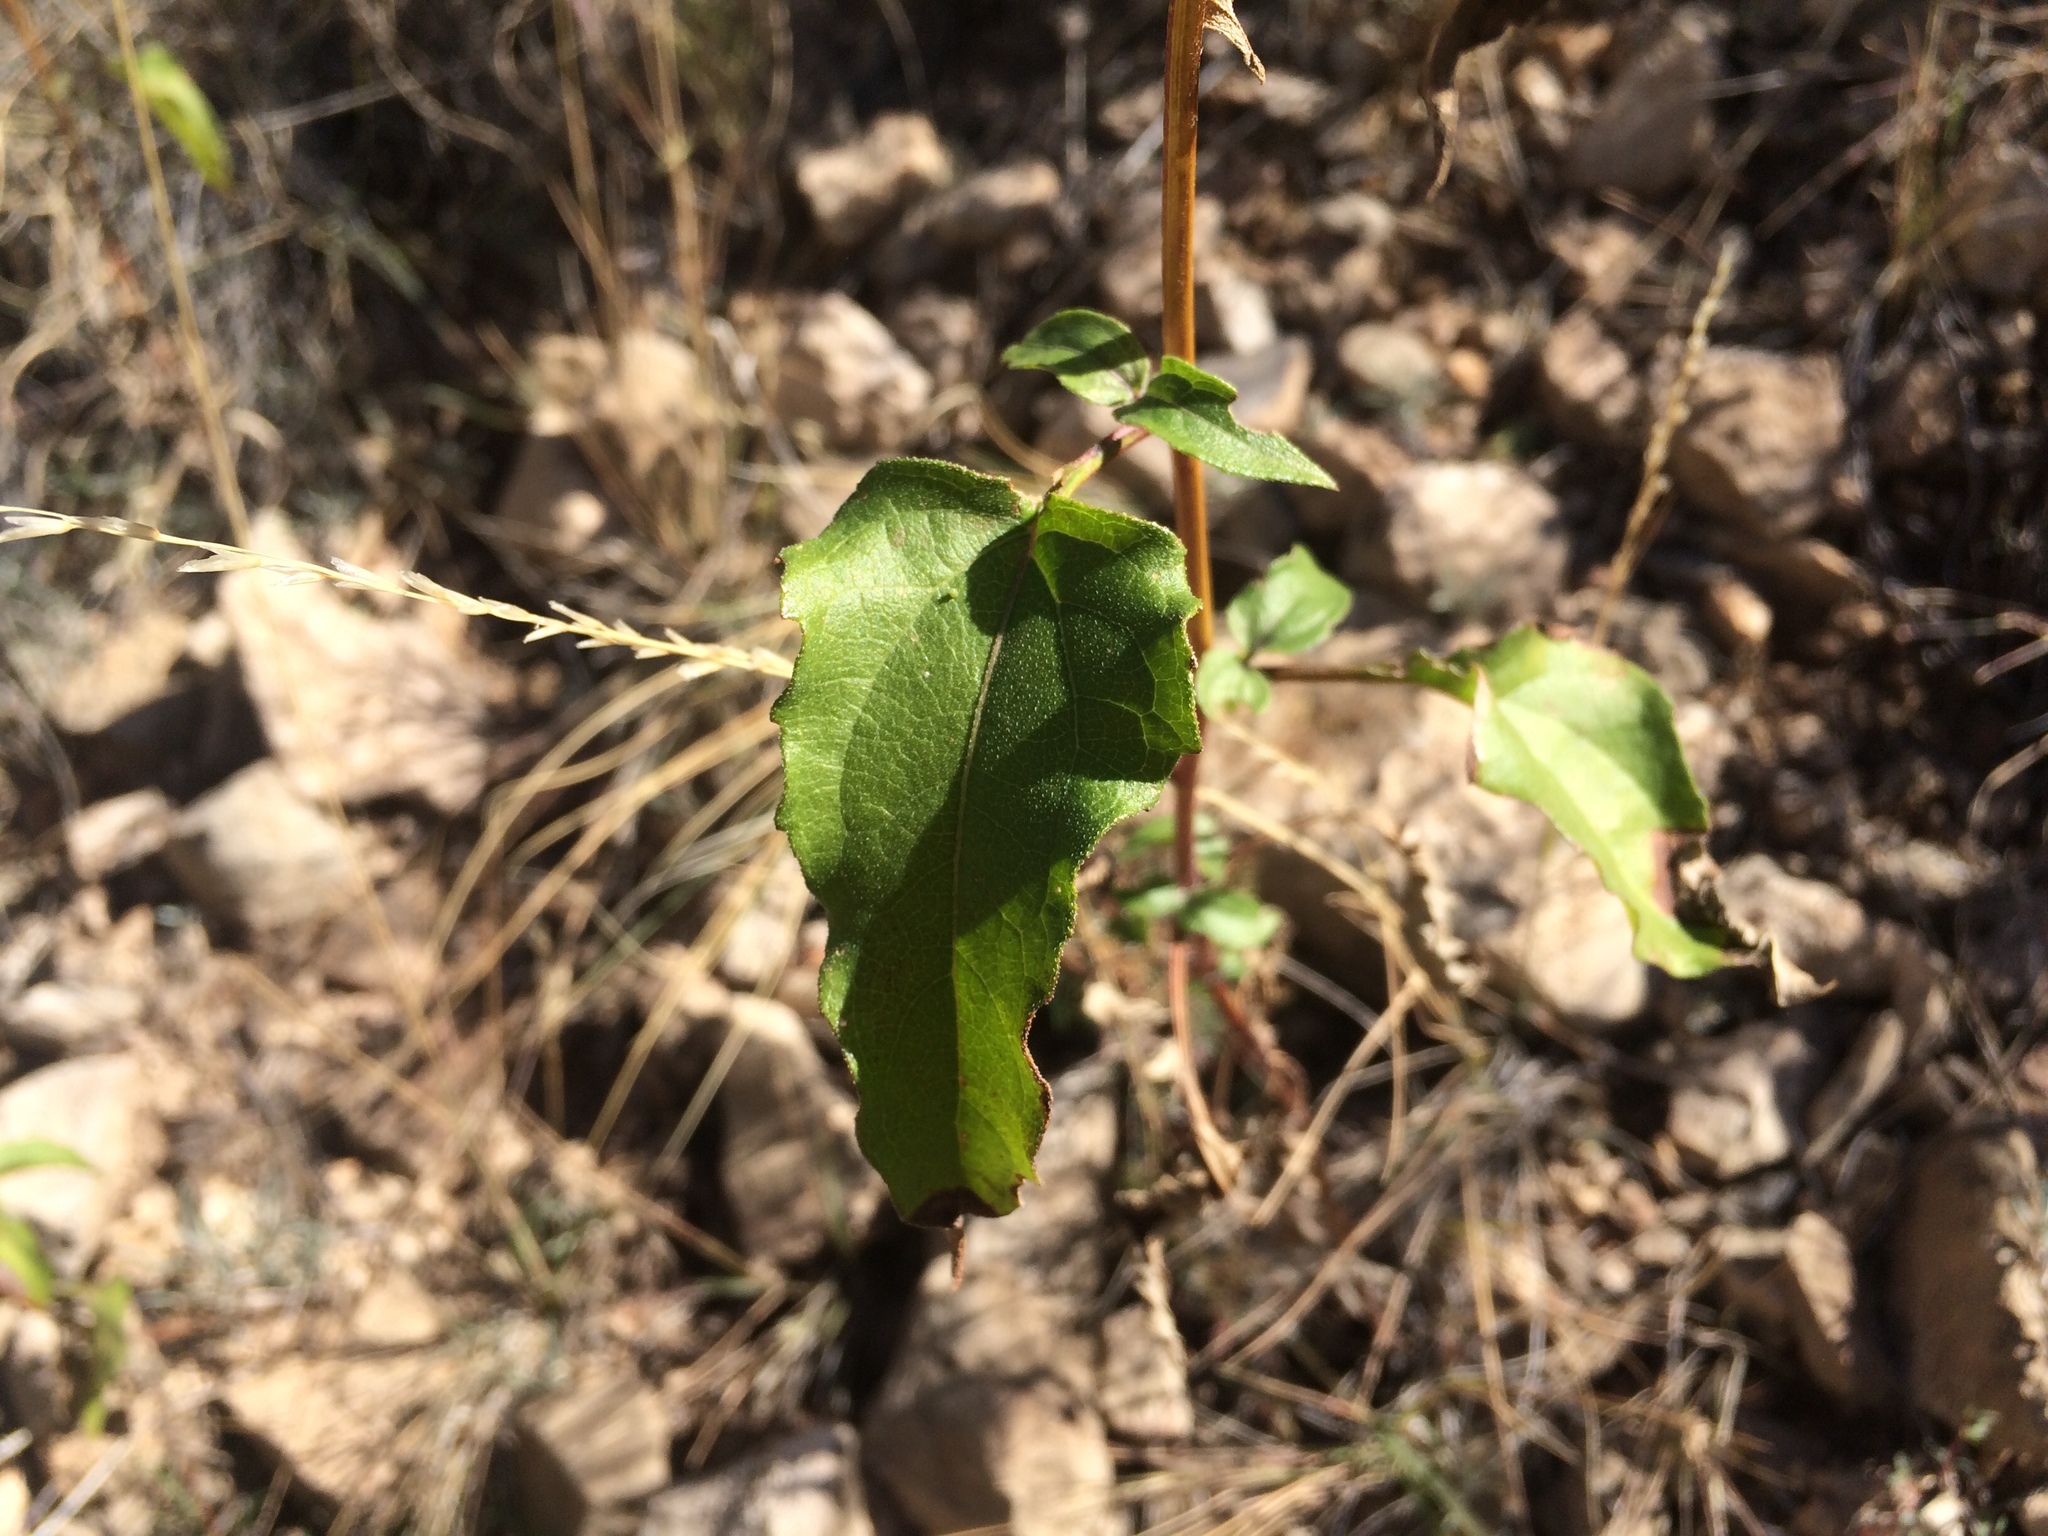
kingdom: Plantae
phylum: Tracheophyta
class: Magnoliopsida
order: Asterales
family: Asteraceae
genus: Viguiera
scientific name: Viguiera dentata
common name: Toothleaf
